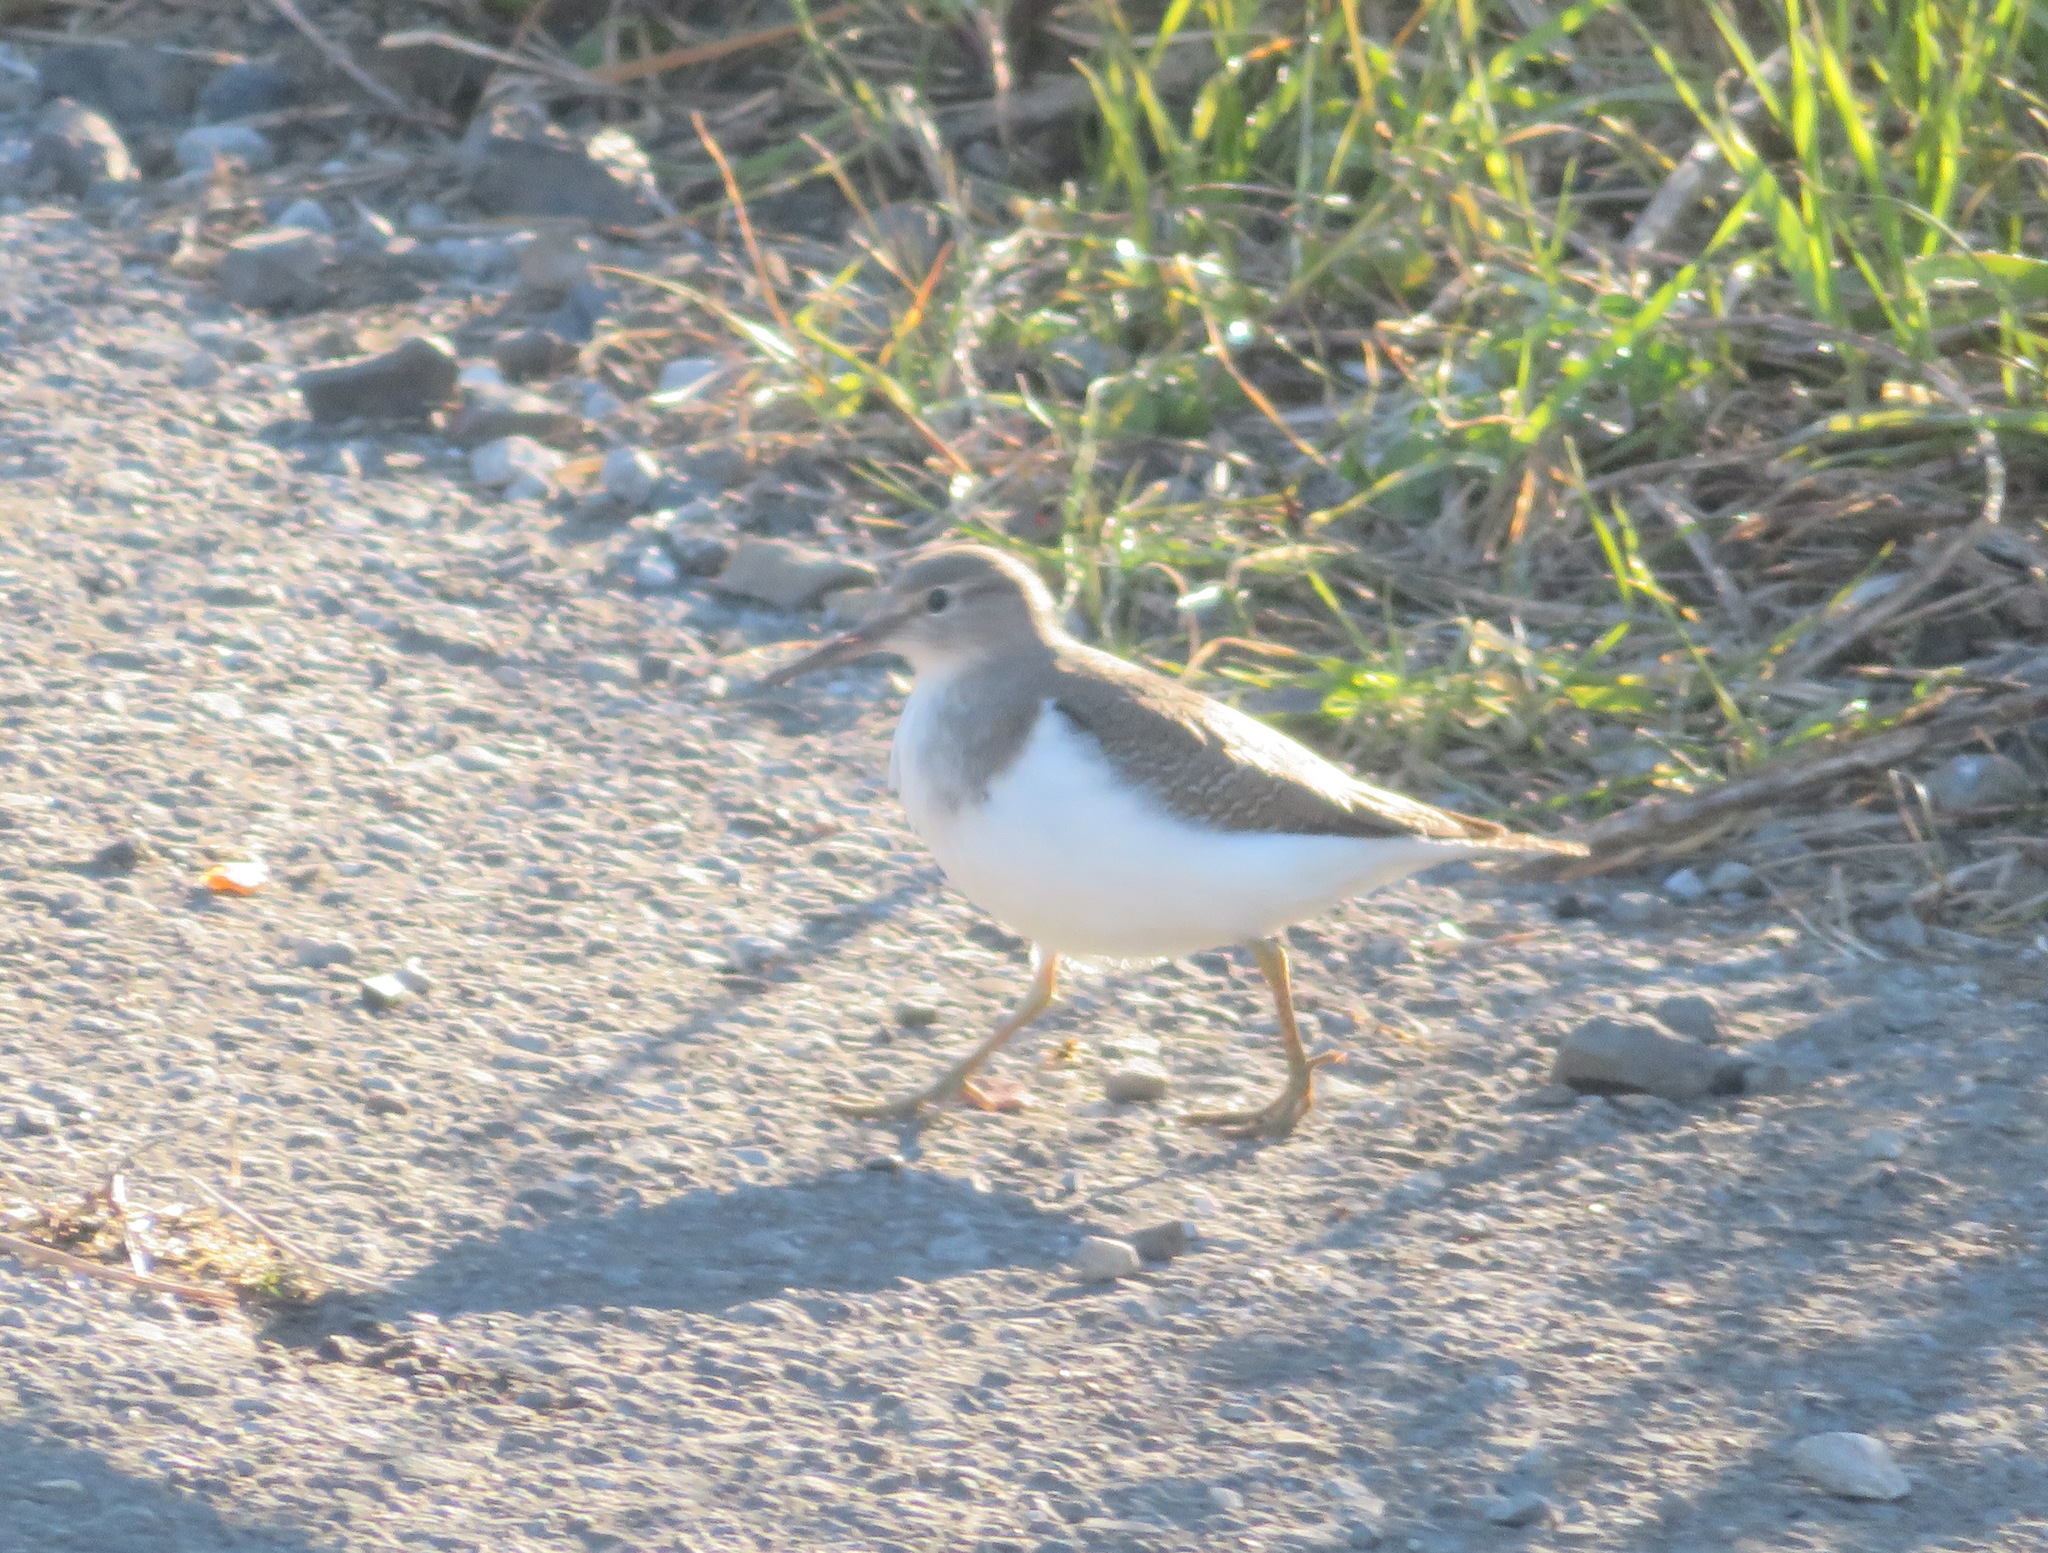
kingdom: Animalia
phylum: Chordata
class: Aves
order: Charadriiformes
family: Scolopacidae
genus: Actitis
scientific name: Actitis hypoleucos
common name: Common sandpiper
